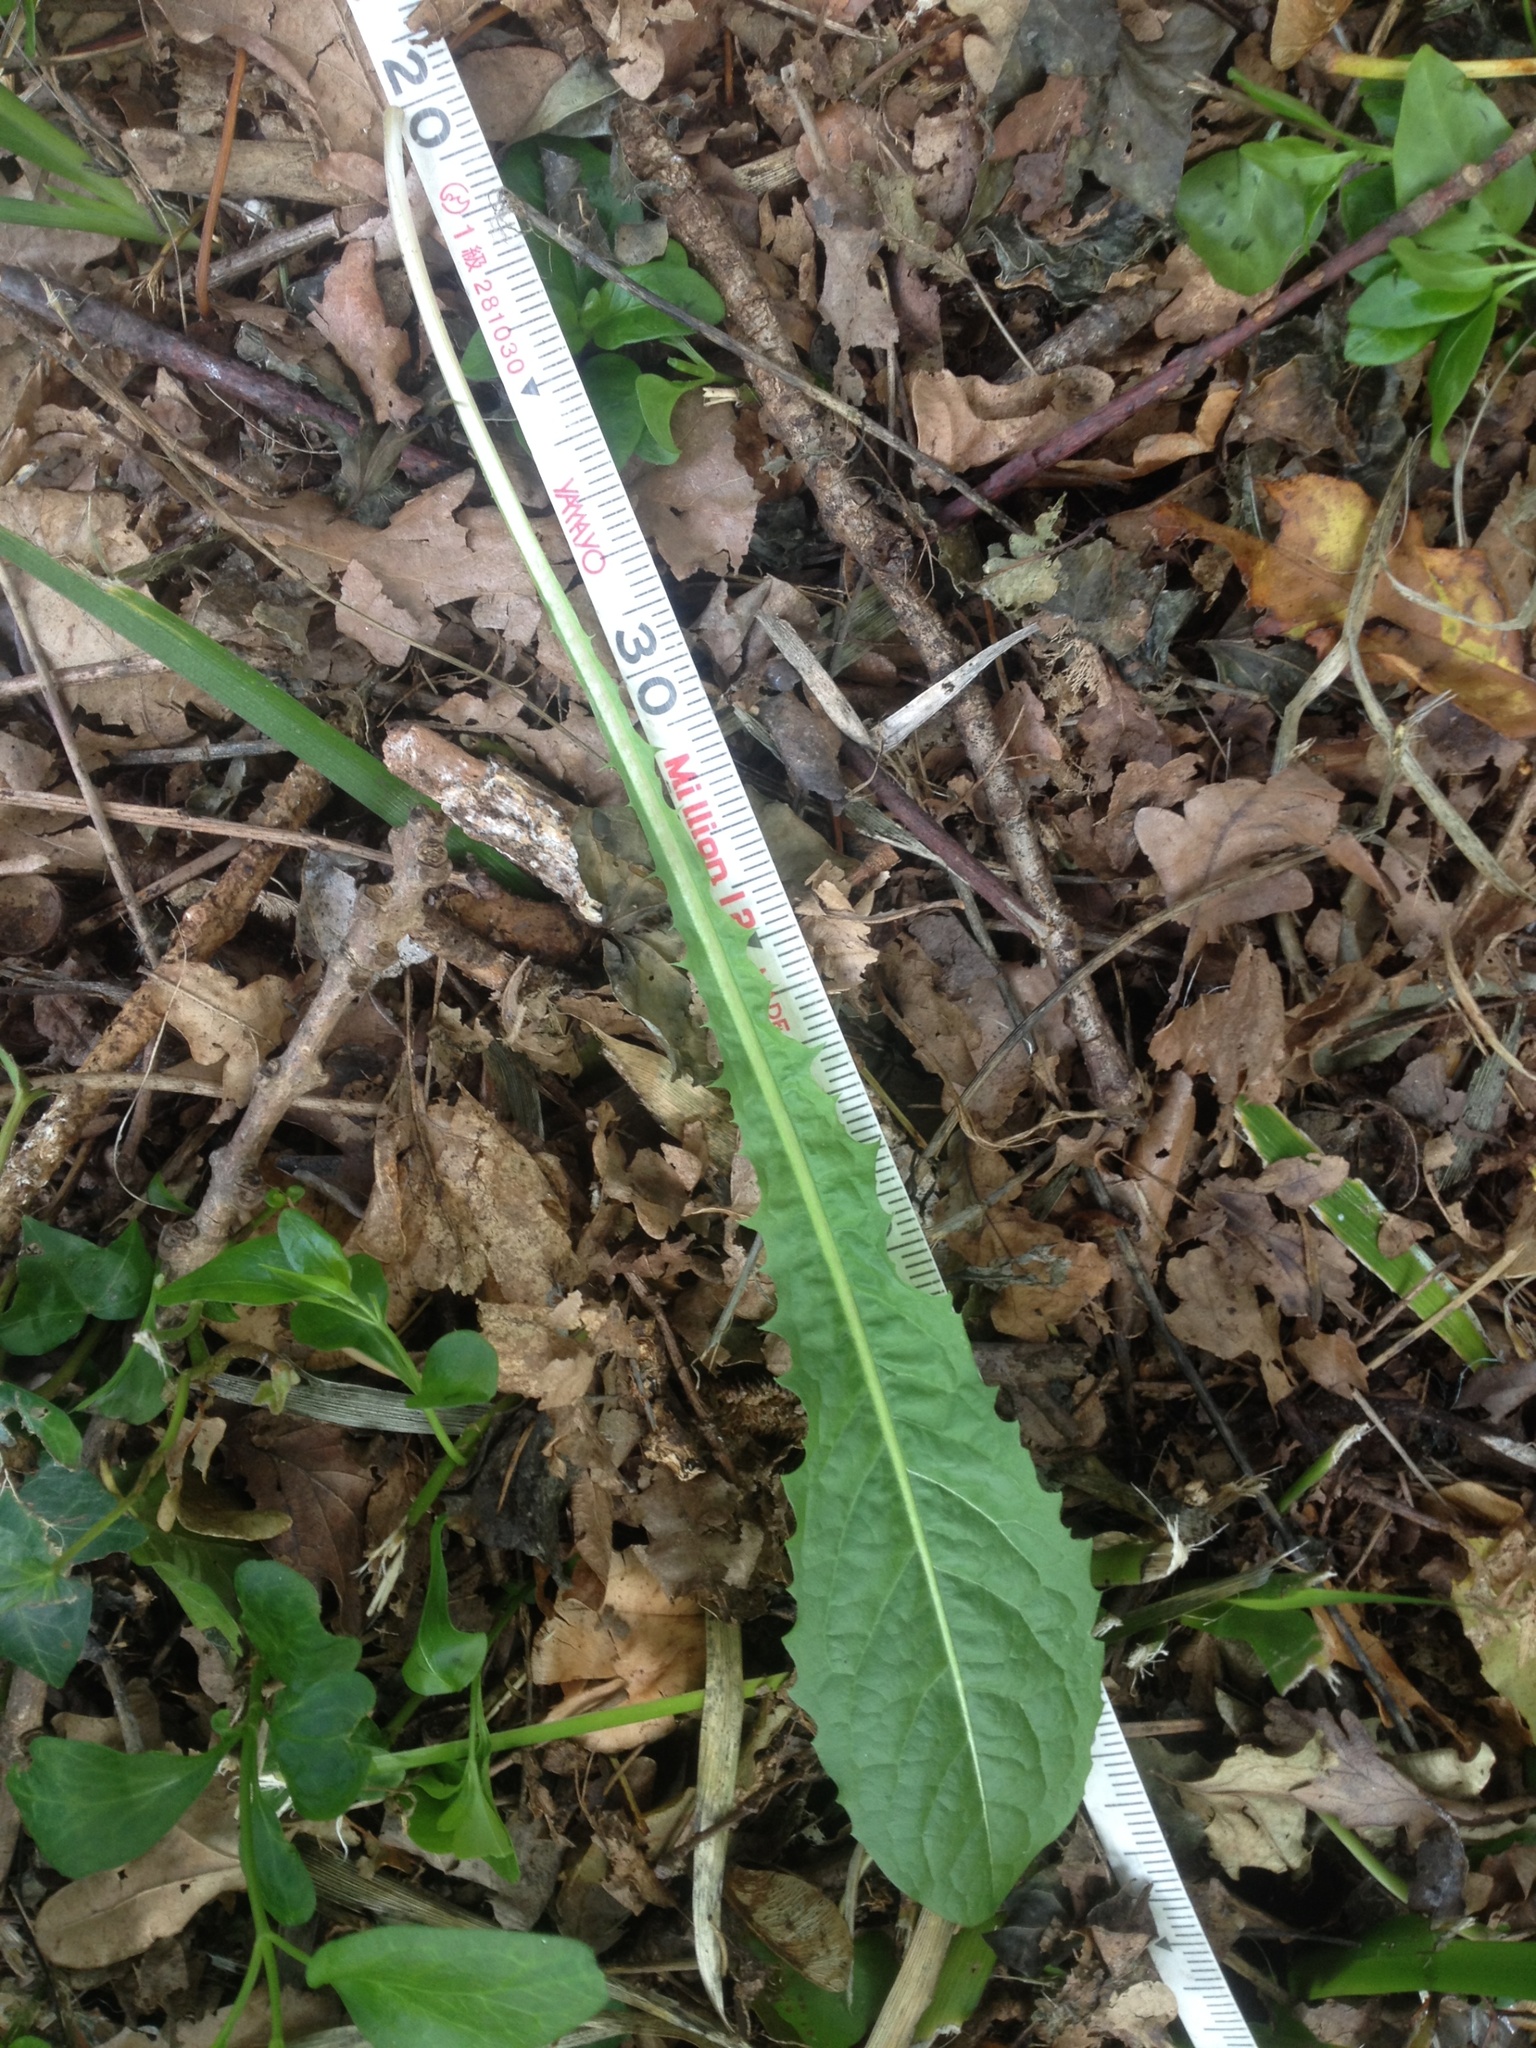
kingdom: Plantae
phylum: Tracheophyta
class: Magnoliopsida
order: Asterales
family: Asteraceae
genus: Taraxacum
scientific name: Taraxacum officinale
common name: Common dandelion
